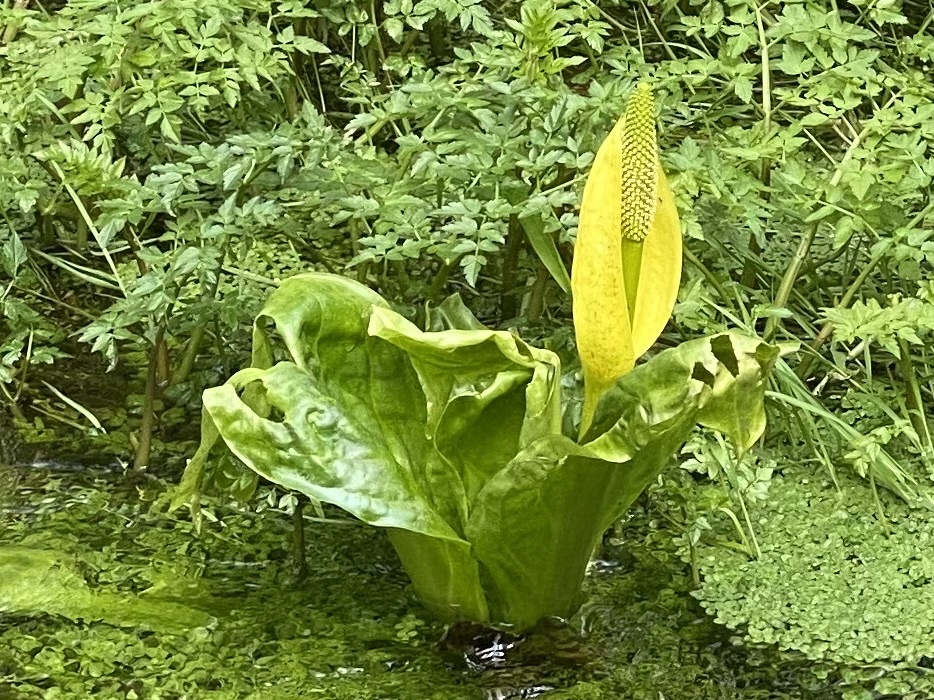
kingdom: Plantae
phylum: Tracheophyta
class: Liliopsida
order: Alismatales
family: Araceae
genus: Lysichiton
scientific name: Lysichiton americanus
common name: American skunk cabbage
